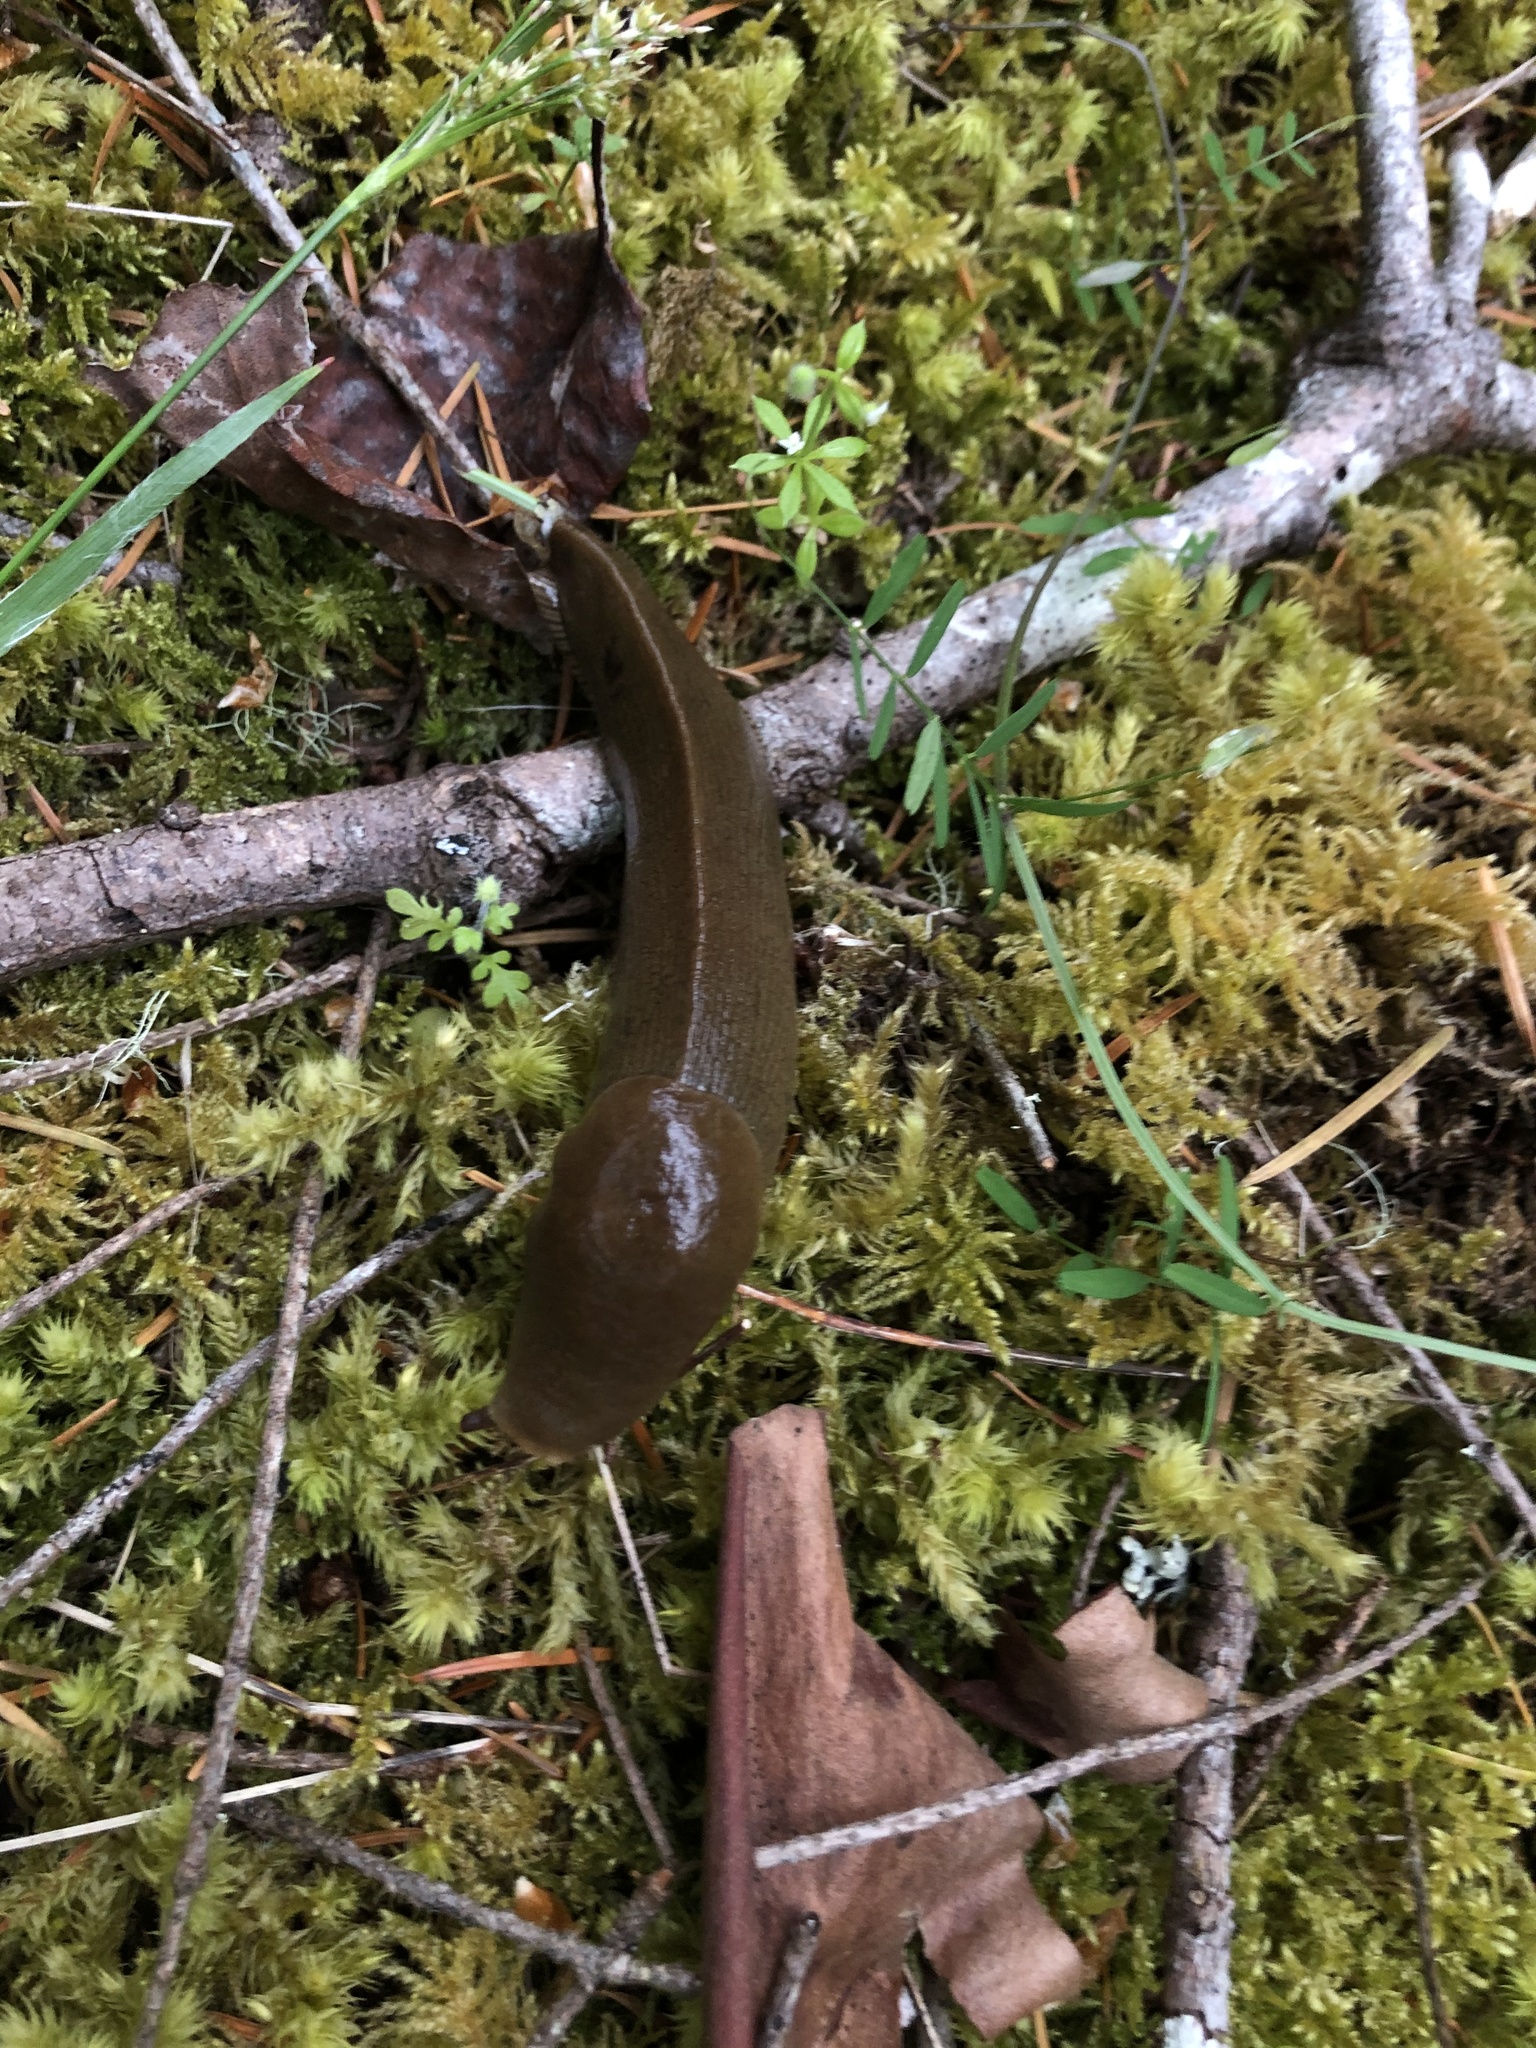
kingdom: Animalia
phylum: Mollusca
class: Gastropoda
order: Stylommatophora
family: Ariolimacidae
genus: Ariolimax
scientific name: Ariolimax columbianus
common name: Pacific banana slug
